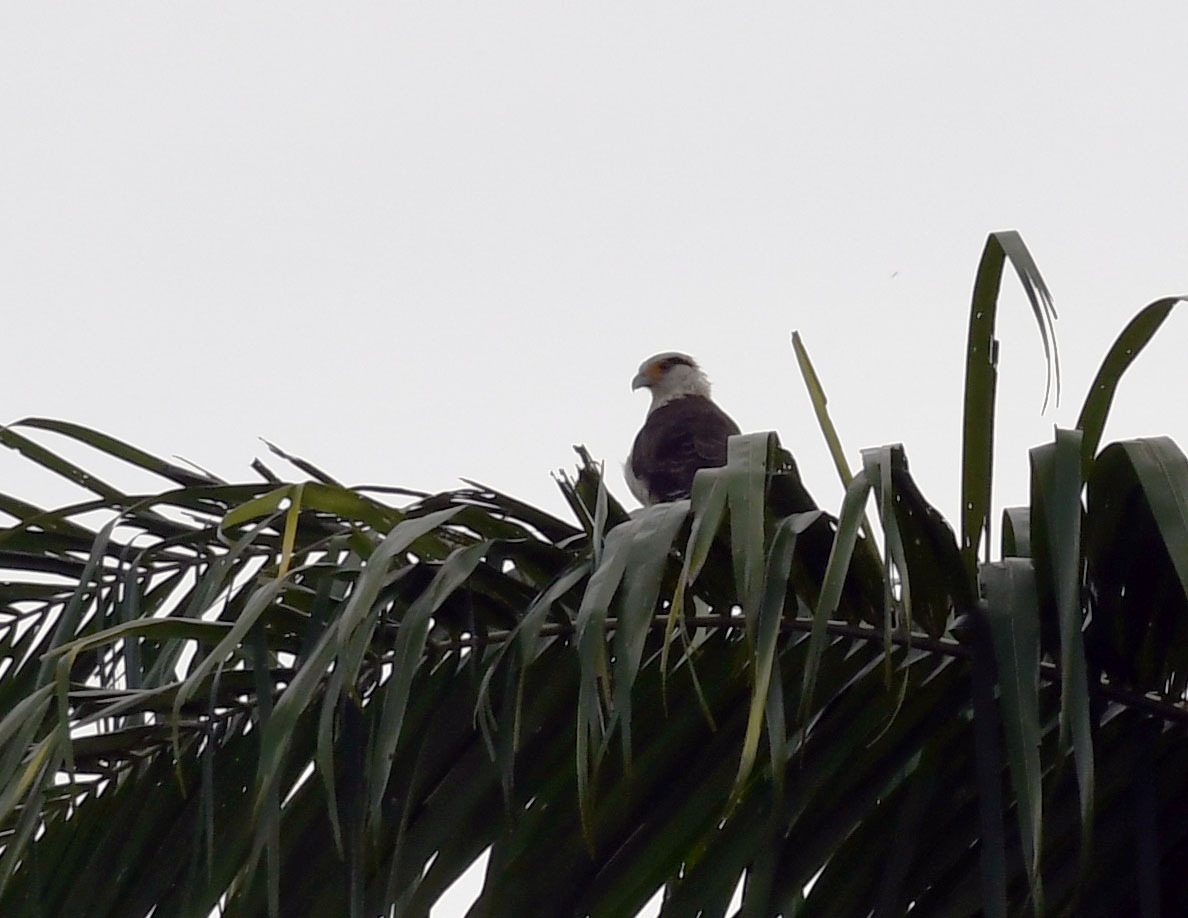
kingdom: Animalia
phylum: Chordata
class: Aves
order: Falconiformes
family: Falconidae
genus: Daptrius
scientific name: Daptrius
